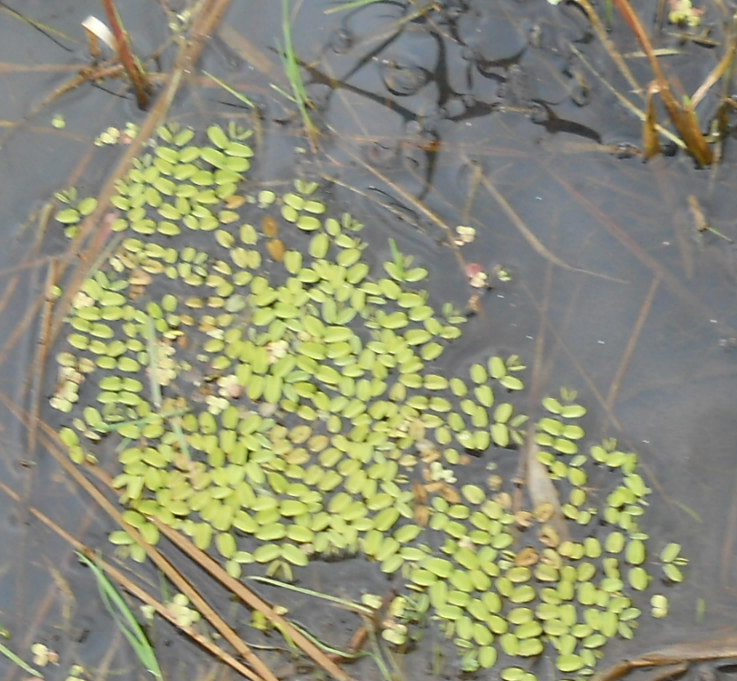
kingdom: Plantae
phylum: Tracheophyta
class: Polypodiopsida
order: Salviniales
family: Salviniaceae
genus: Salvinia
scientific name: Salvinia natans
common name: Floating fern
